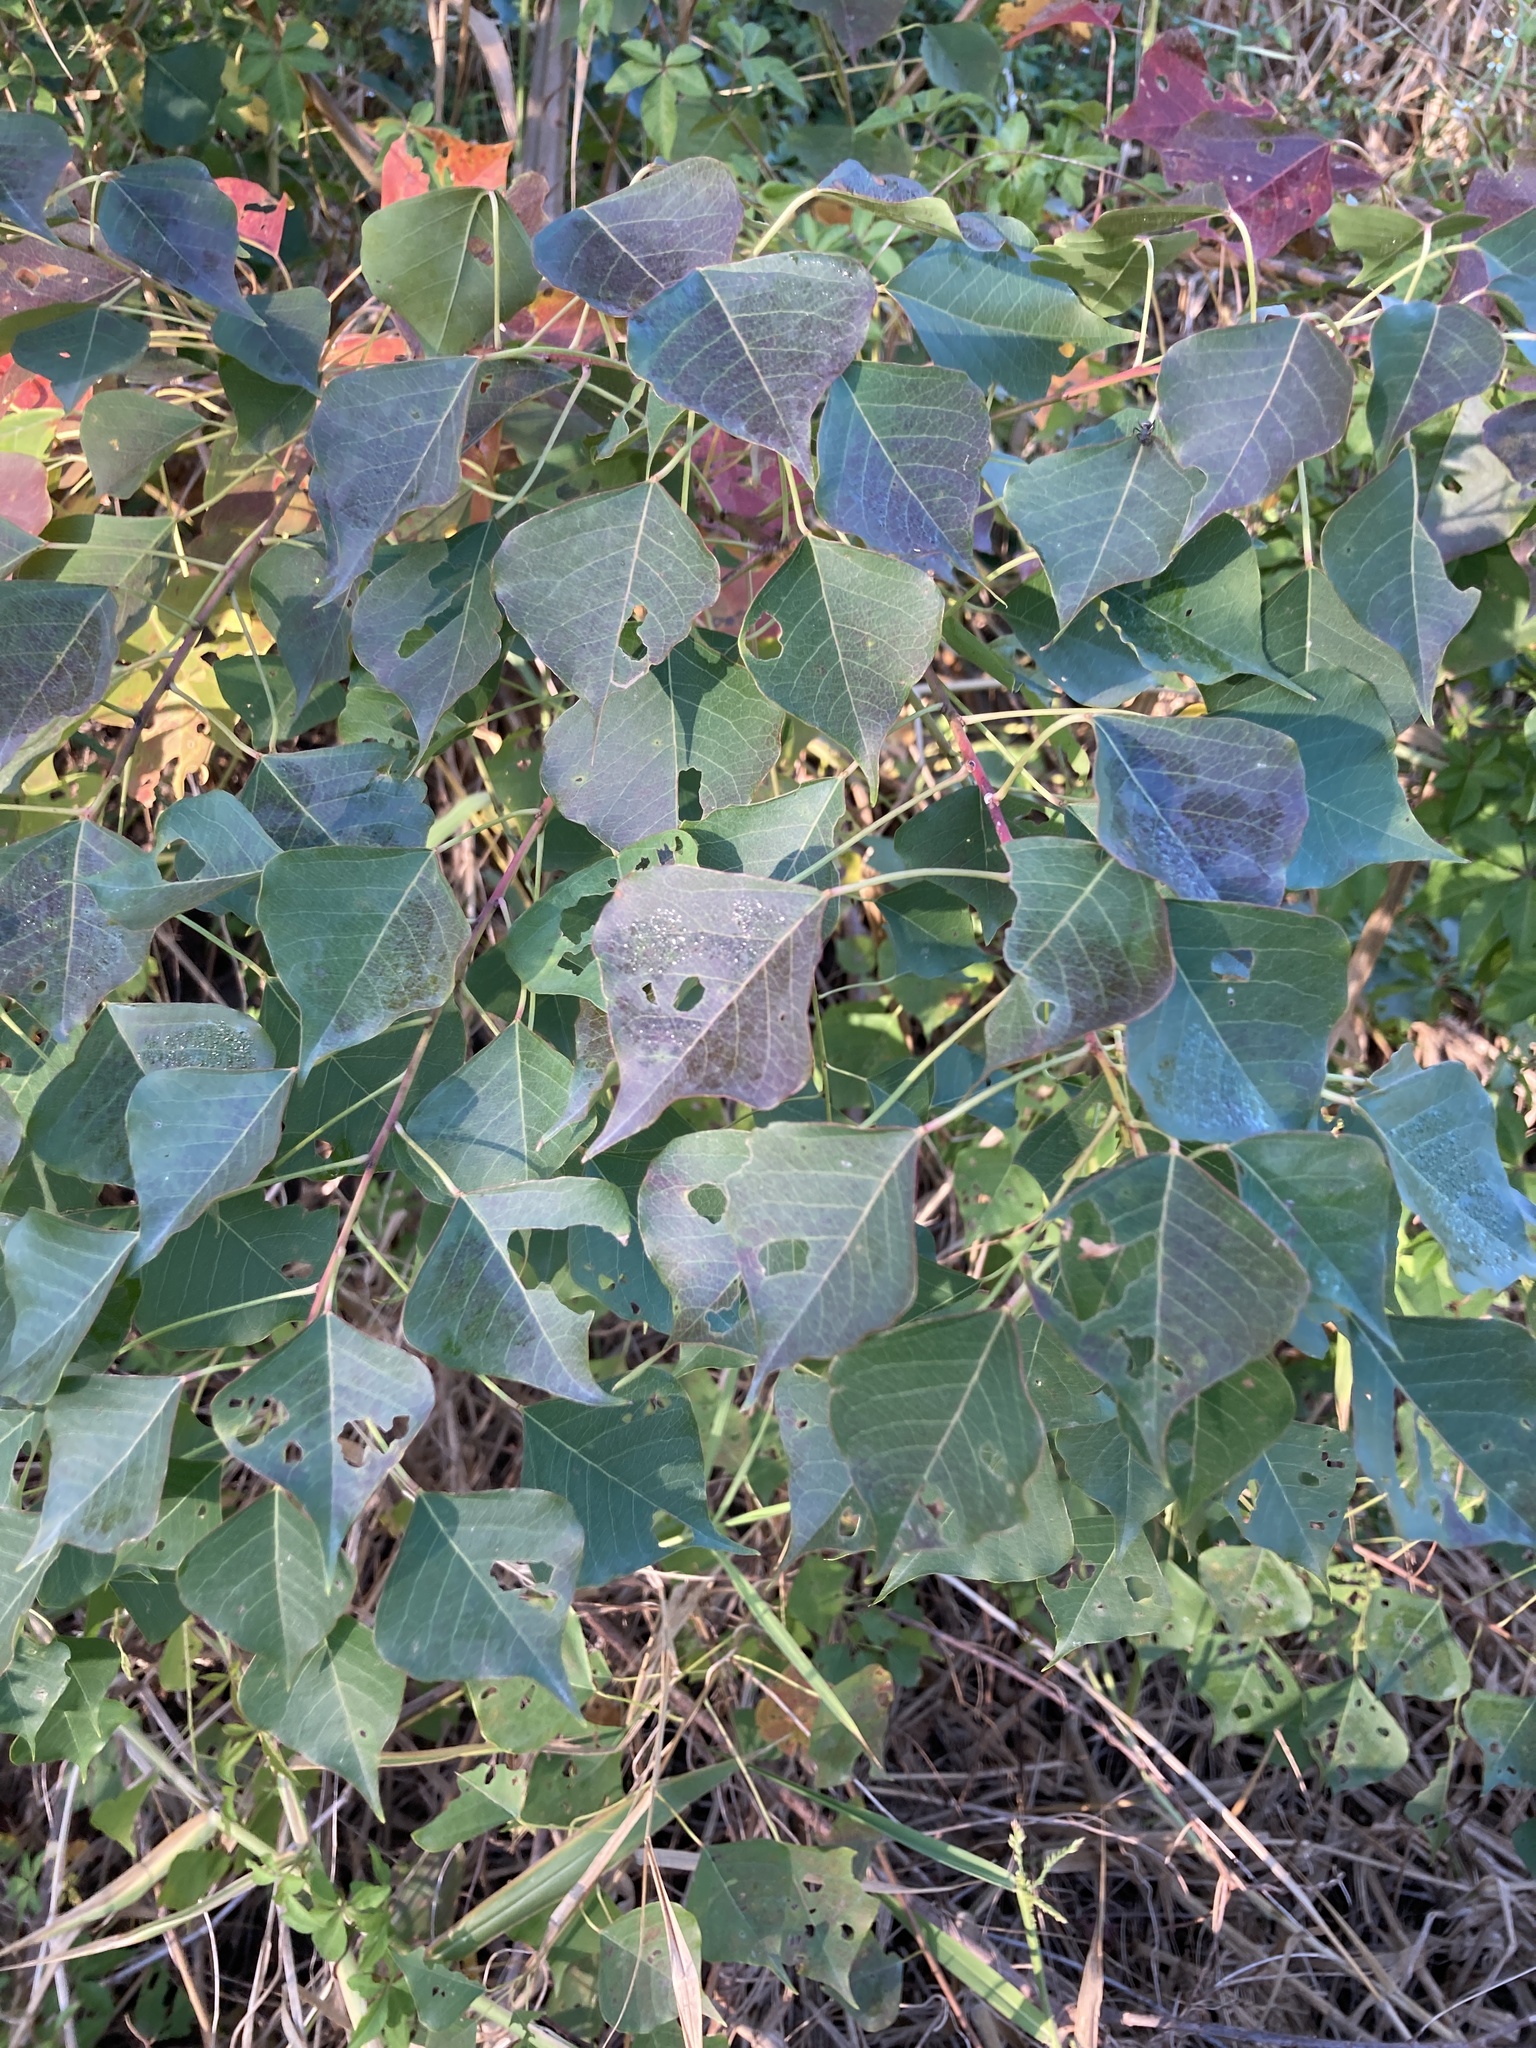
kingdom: Plantae
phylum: Tracheophyta
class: Magnoliopsida
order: Malpighiales
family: Euphorbiaceae
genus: Triadica
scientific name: Triadica sebifera
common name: Chinese tallow
